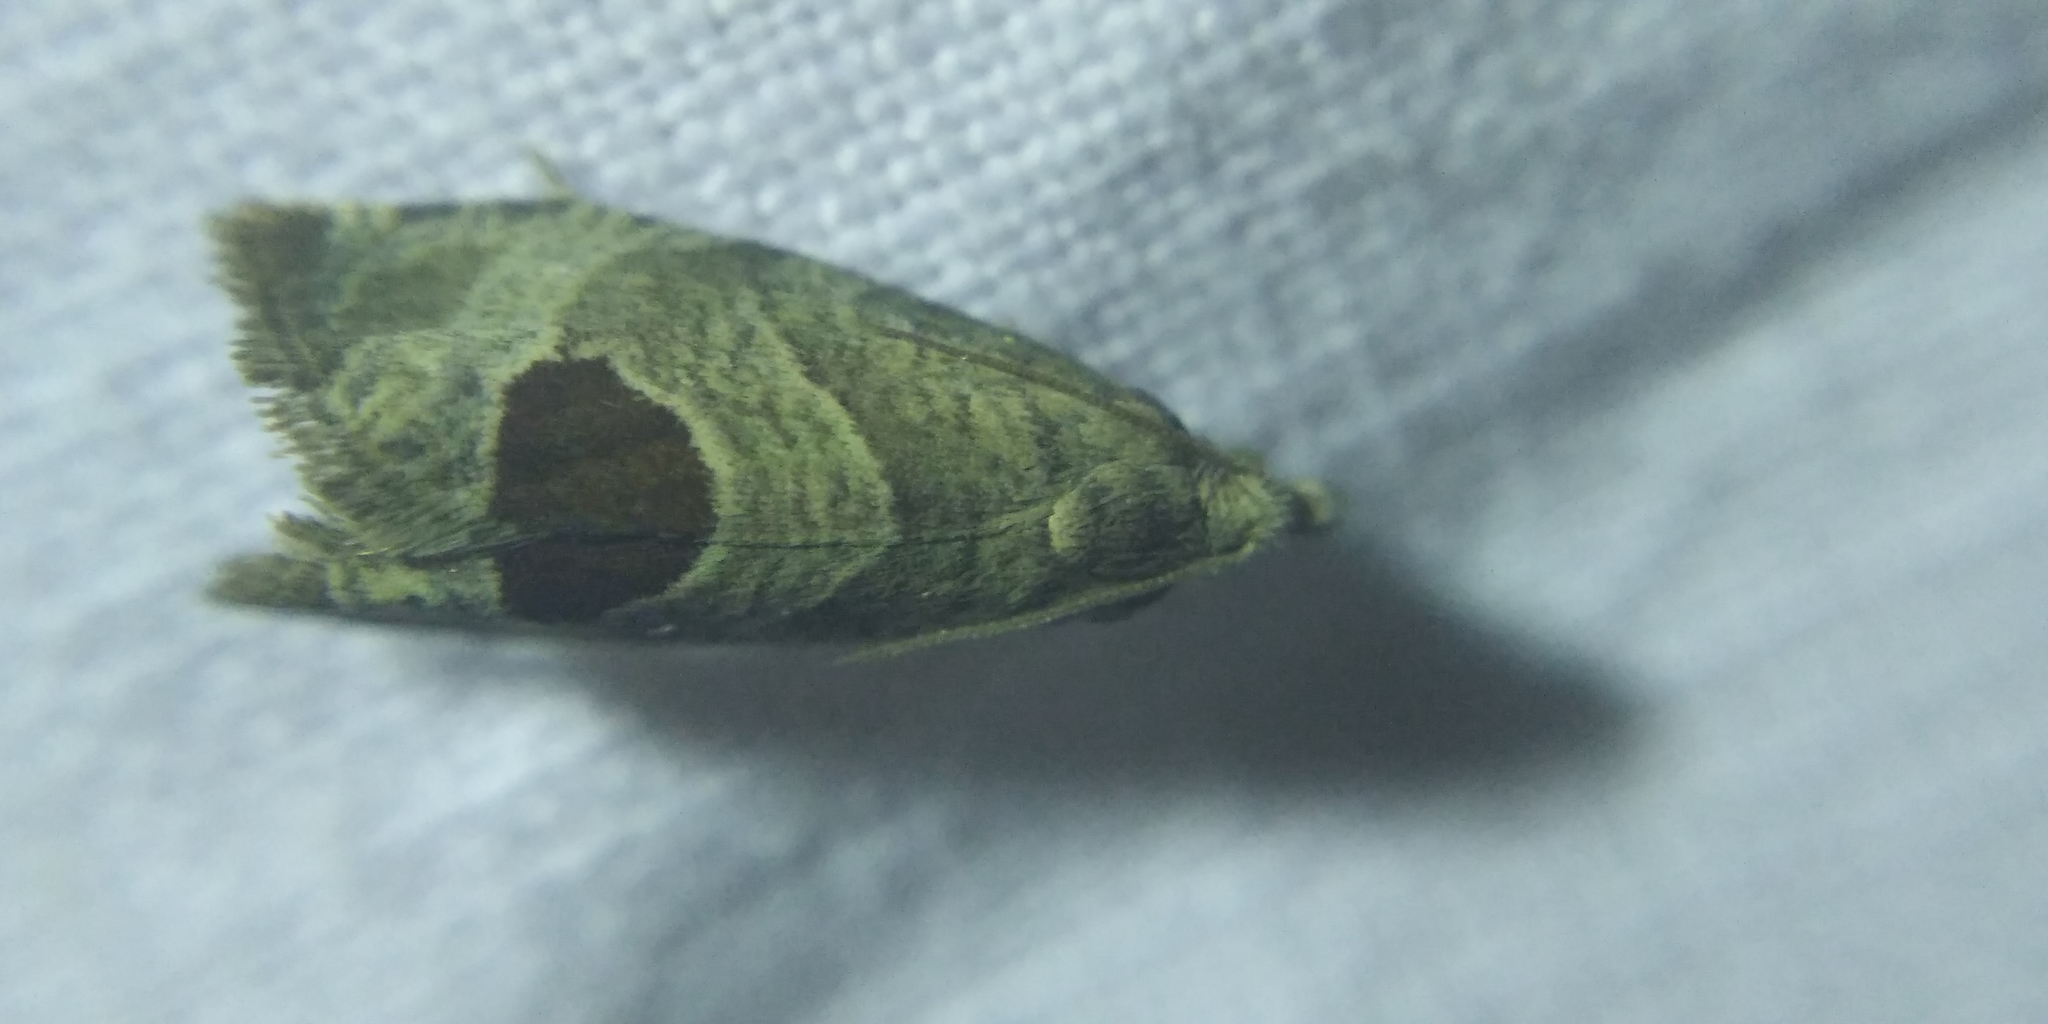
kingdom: Animalia
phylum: Arthropoda
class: Insecta
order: Lepidoptera
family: Tortricidae
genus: Notocelia
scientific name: Notocelia uddmanniana
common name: Bramble shoot moth
